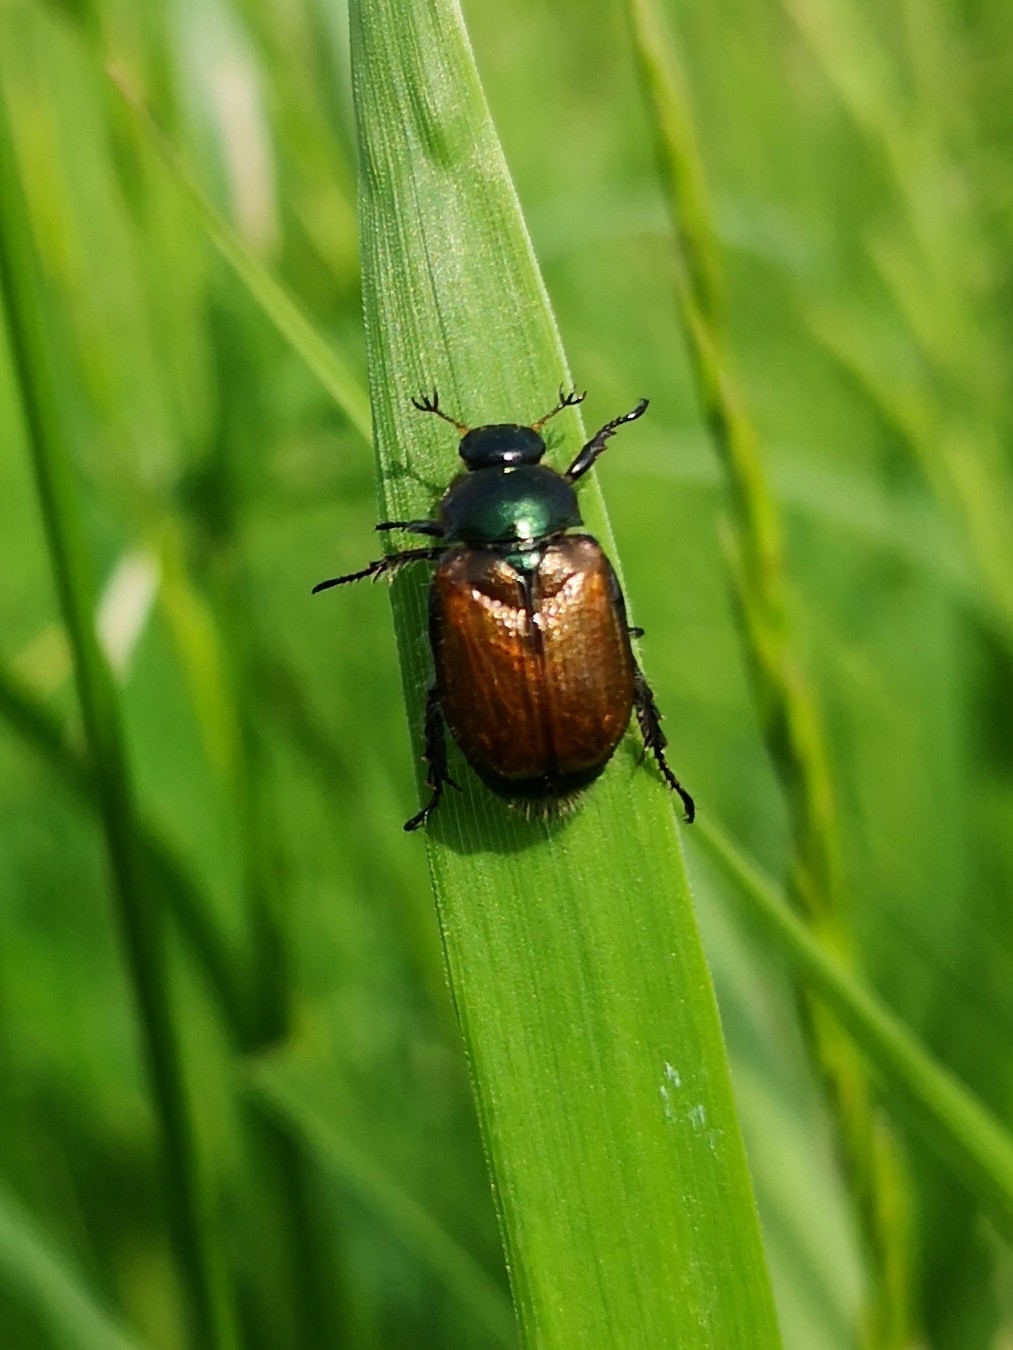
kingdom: Animalia
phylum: Arthropoda
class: Insecta
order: Coleoptera
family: Scarabaeidae
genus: Phyllopertha
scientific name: Phyllopertha horticola
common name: Garden chafer
